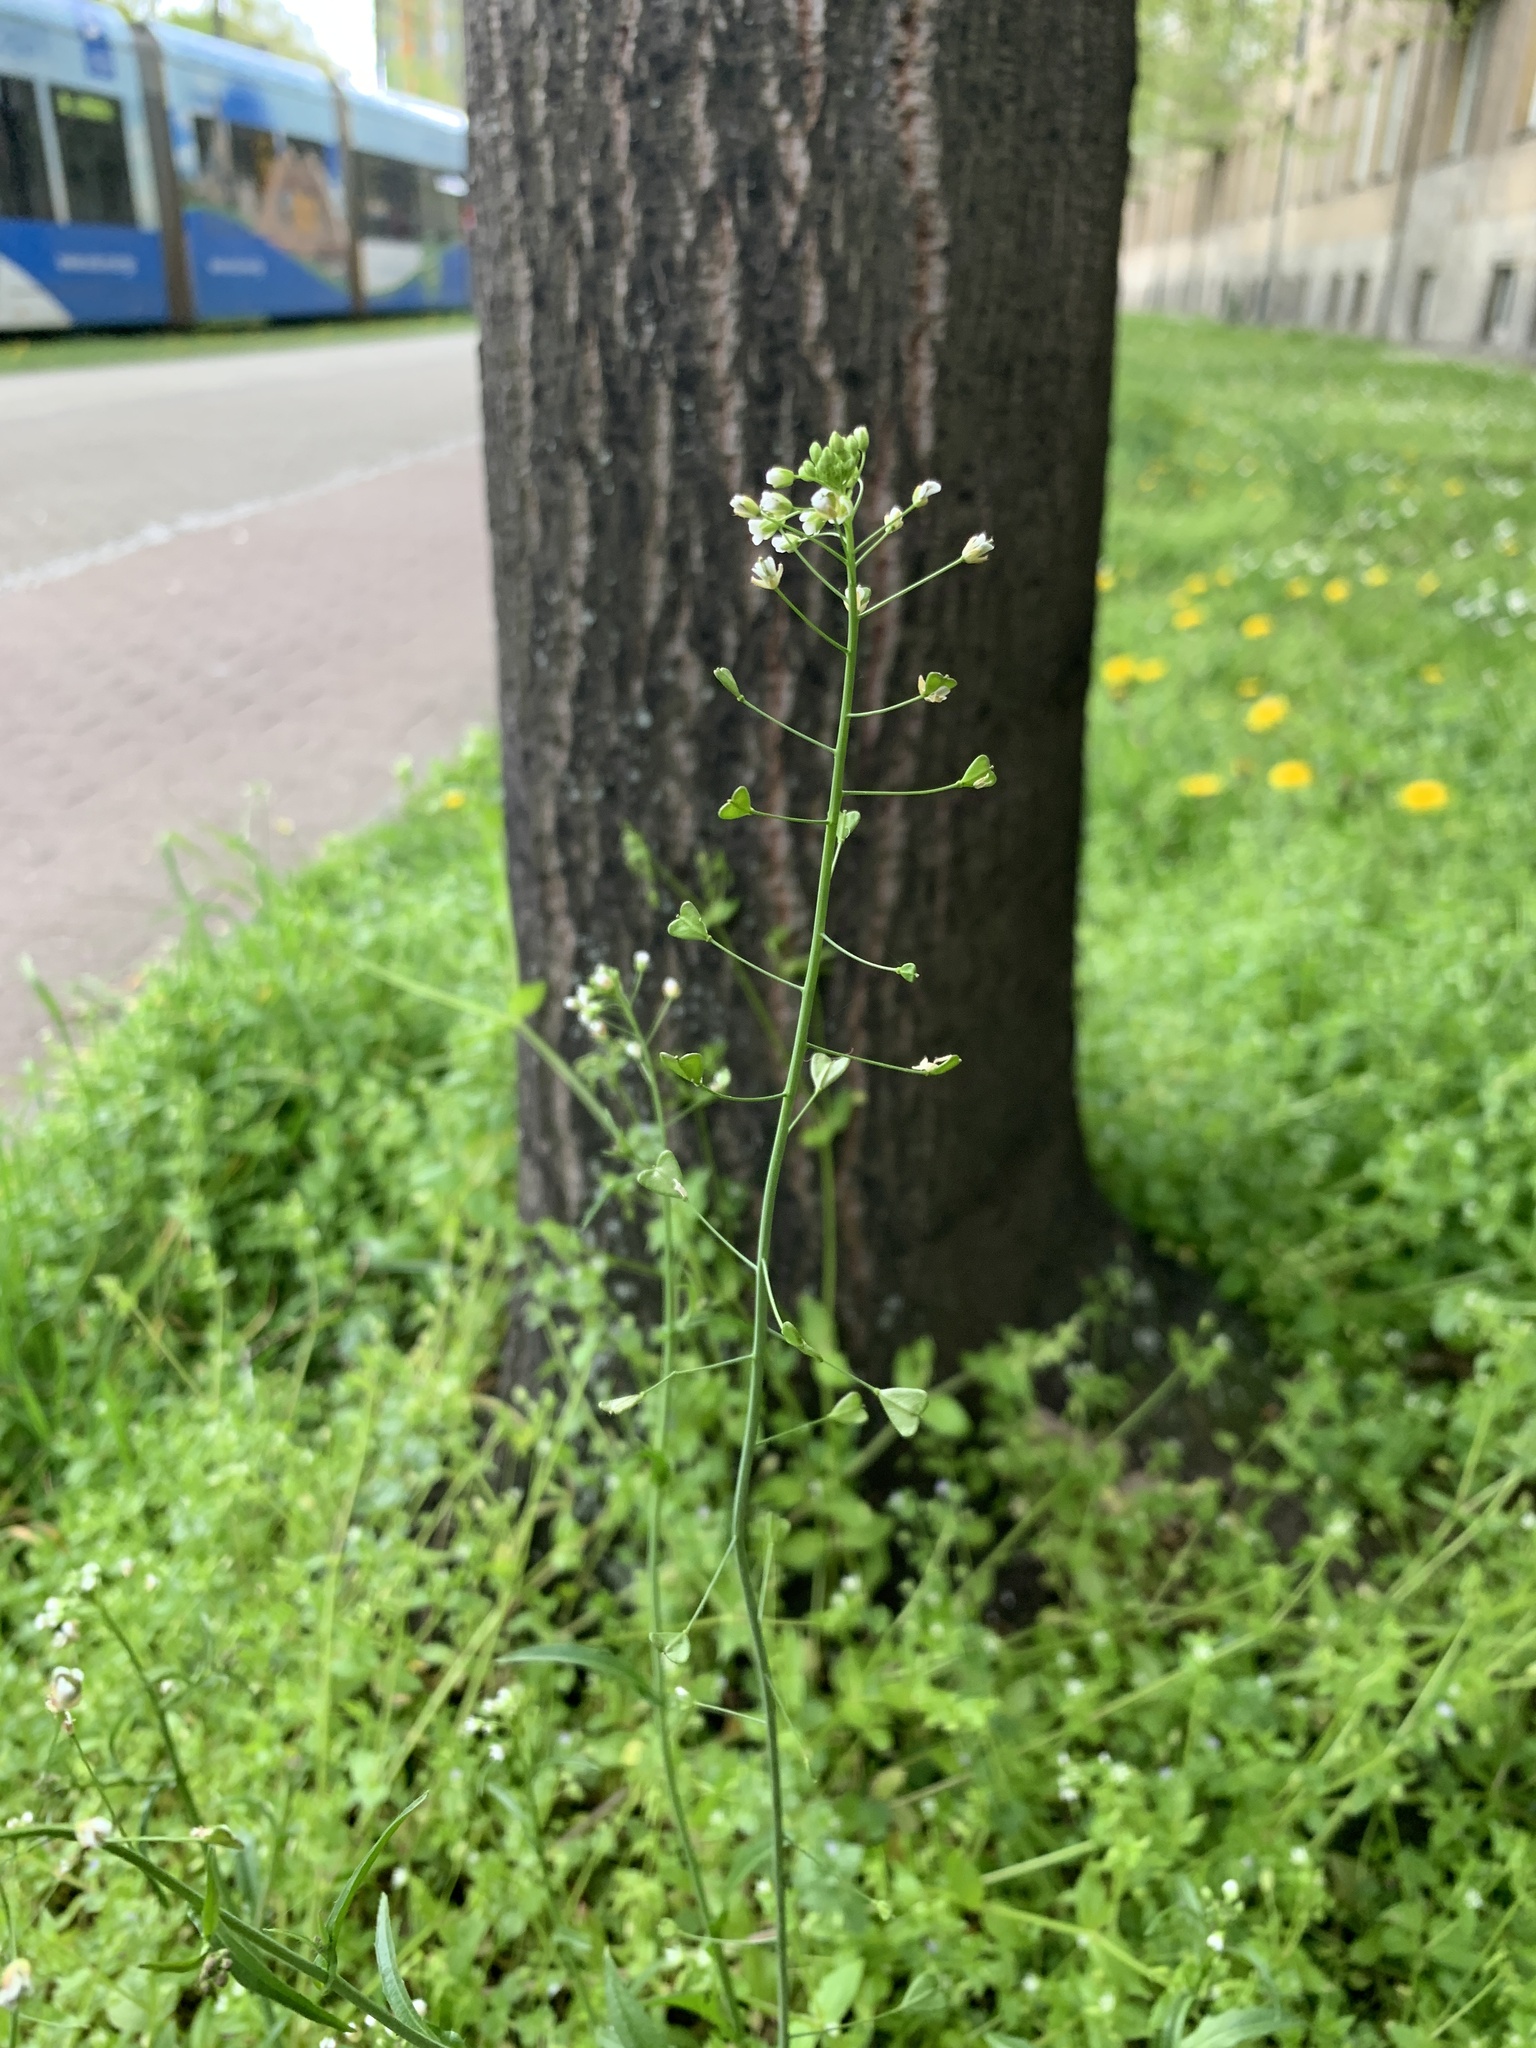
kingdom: Plantae
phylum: Tracheophyta
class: Magnoliopsida
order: Brassicales
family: Brassicaceae
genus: Capsella
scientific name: Capsella bursa-pastoris
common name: Shepherd's purse
